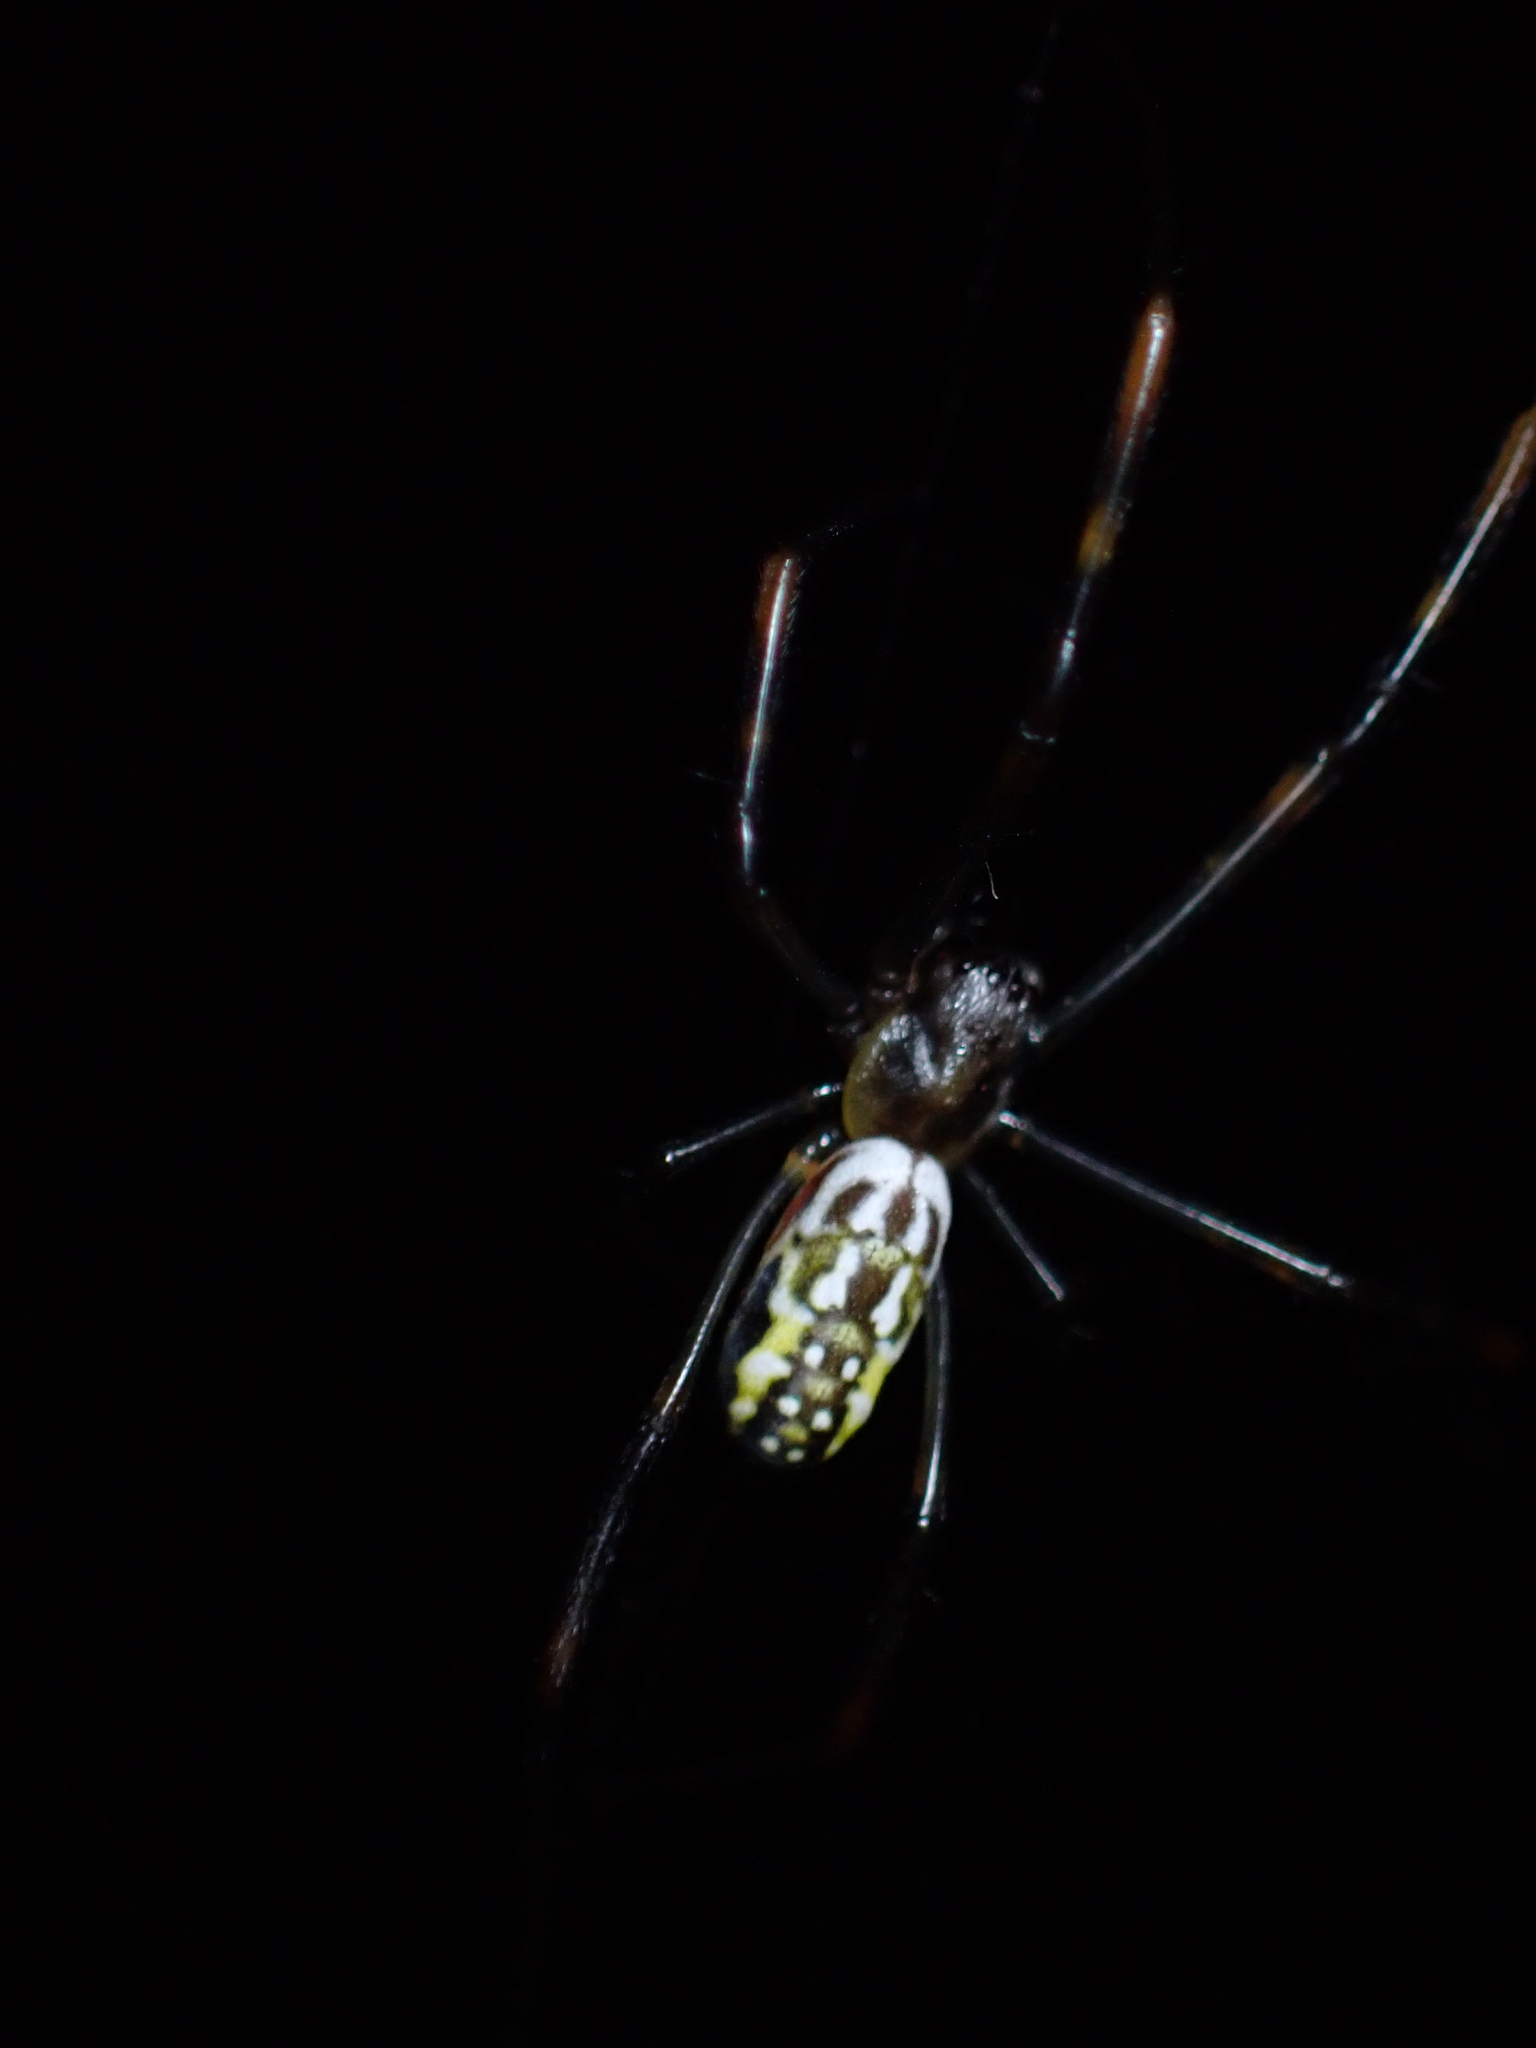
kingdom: Animalia
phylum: Arthropoda
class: Arachnida
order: Araneae
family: Araneidae
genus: Trichonephila
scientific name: Trichonephila plumipes
